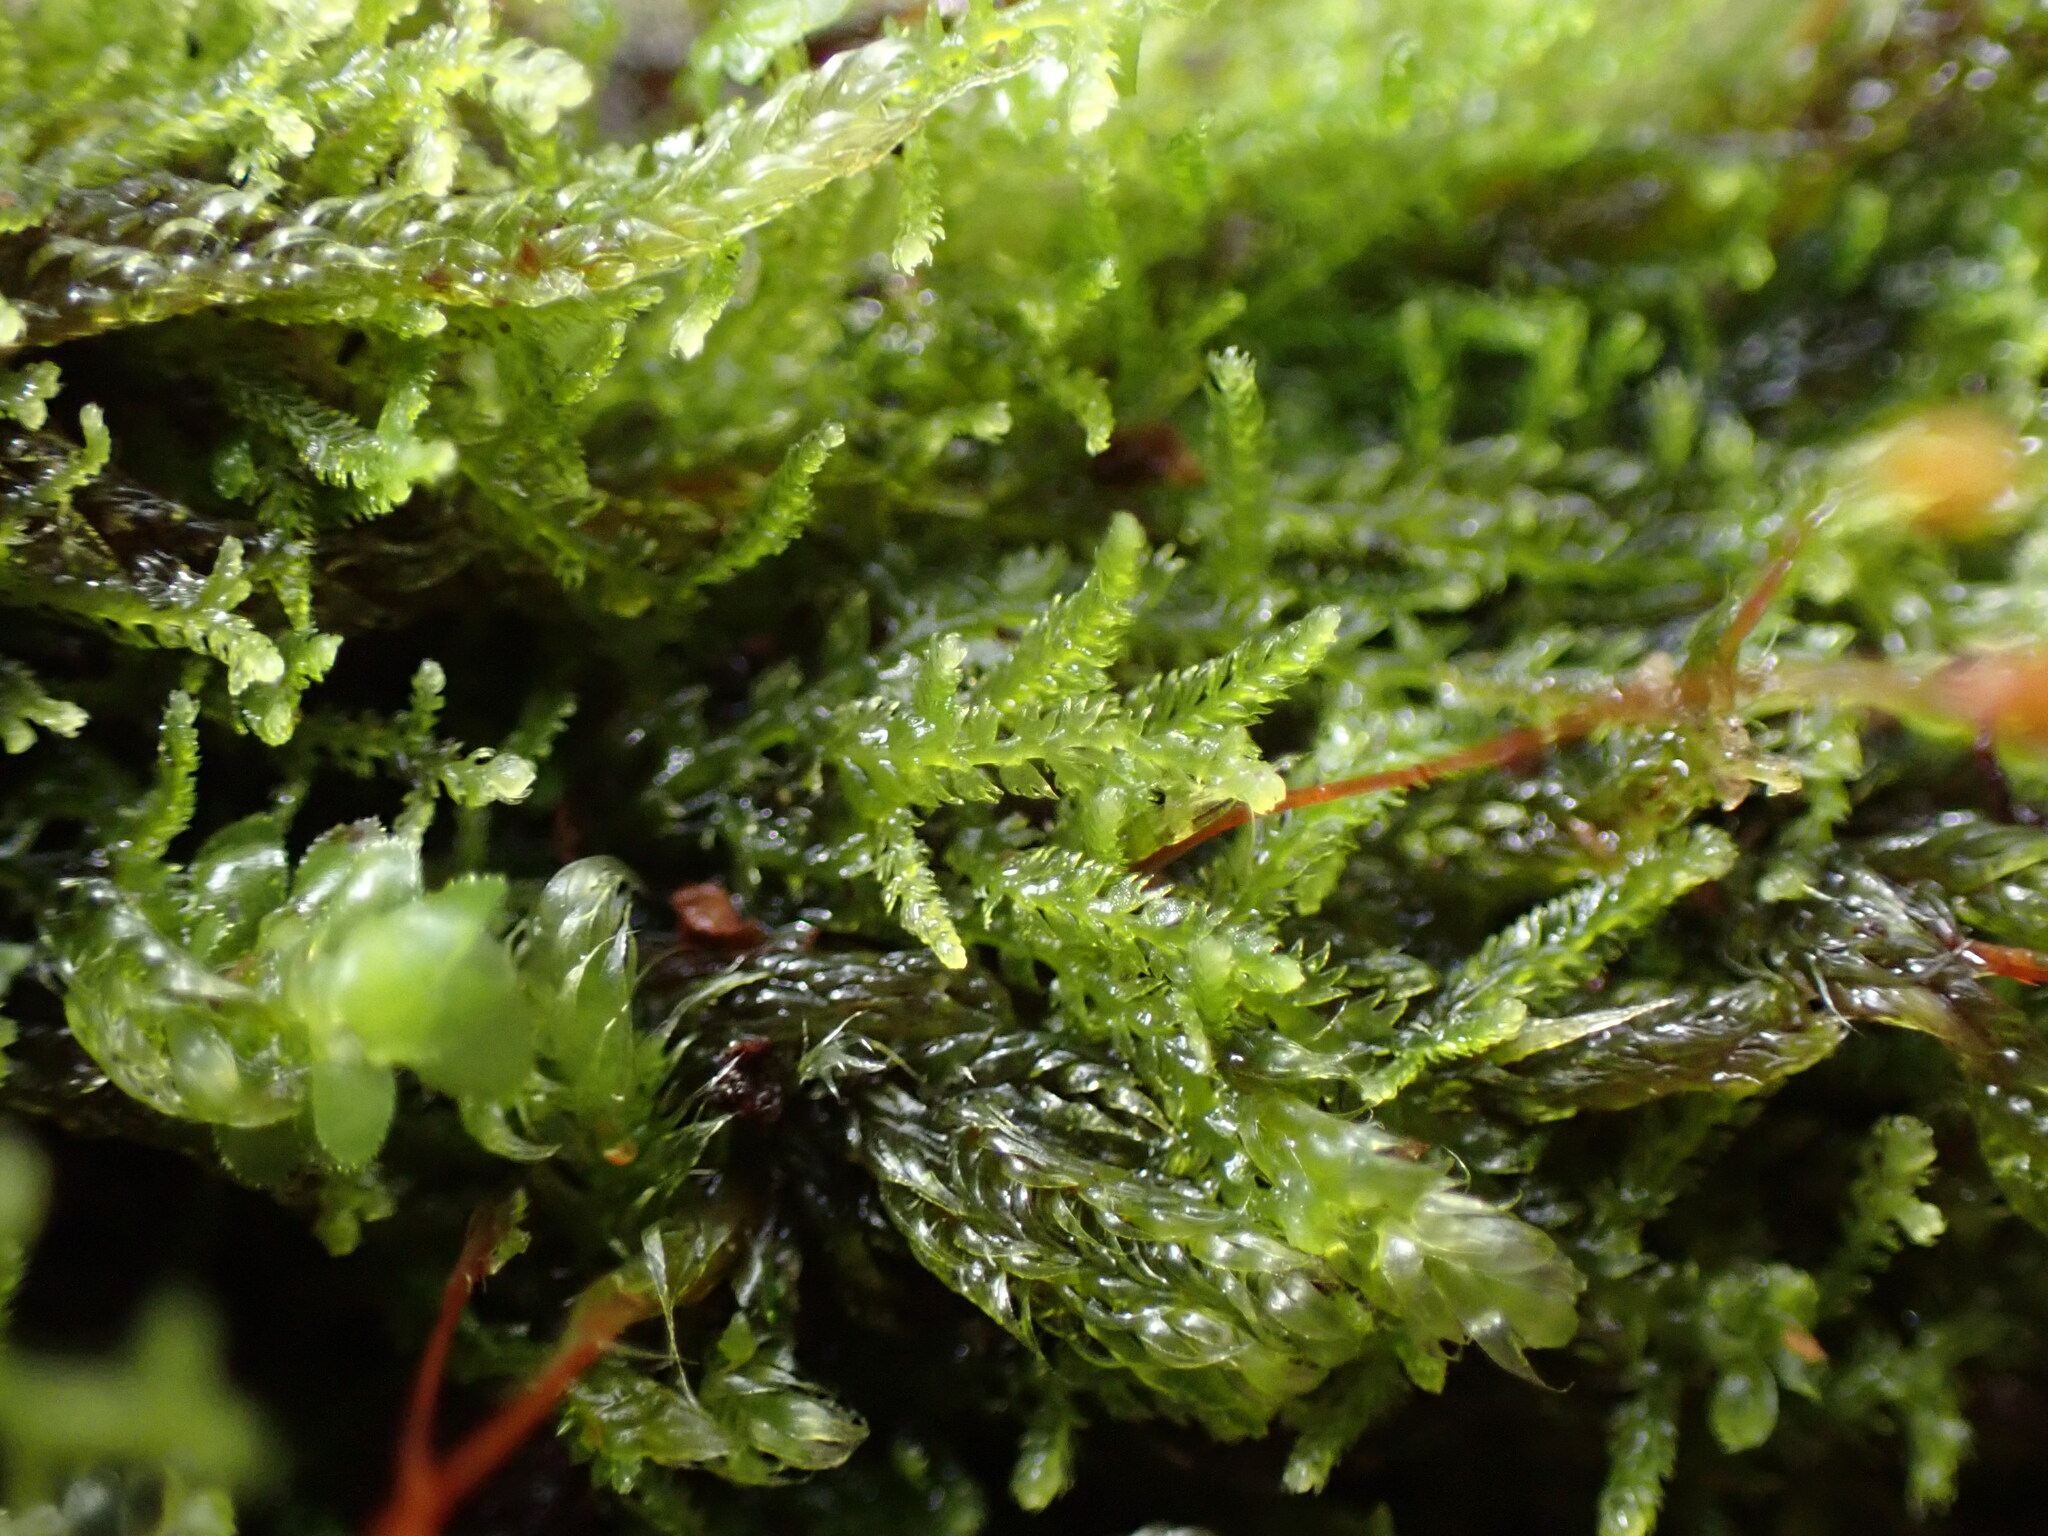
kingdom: Plantae
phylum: Marchantiophyta
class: Jungermanniopsida
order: Jungermanniales
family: Lepidoziaceae
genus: Lepidozia
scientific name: Lepidozia reptans
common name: Creeping fingerwort
